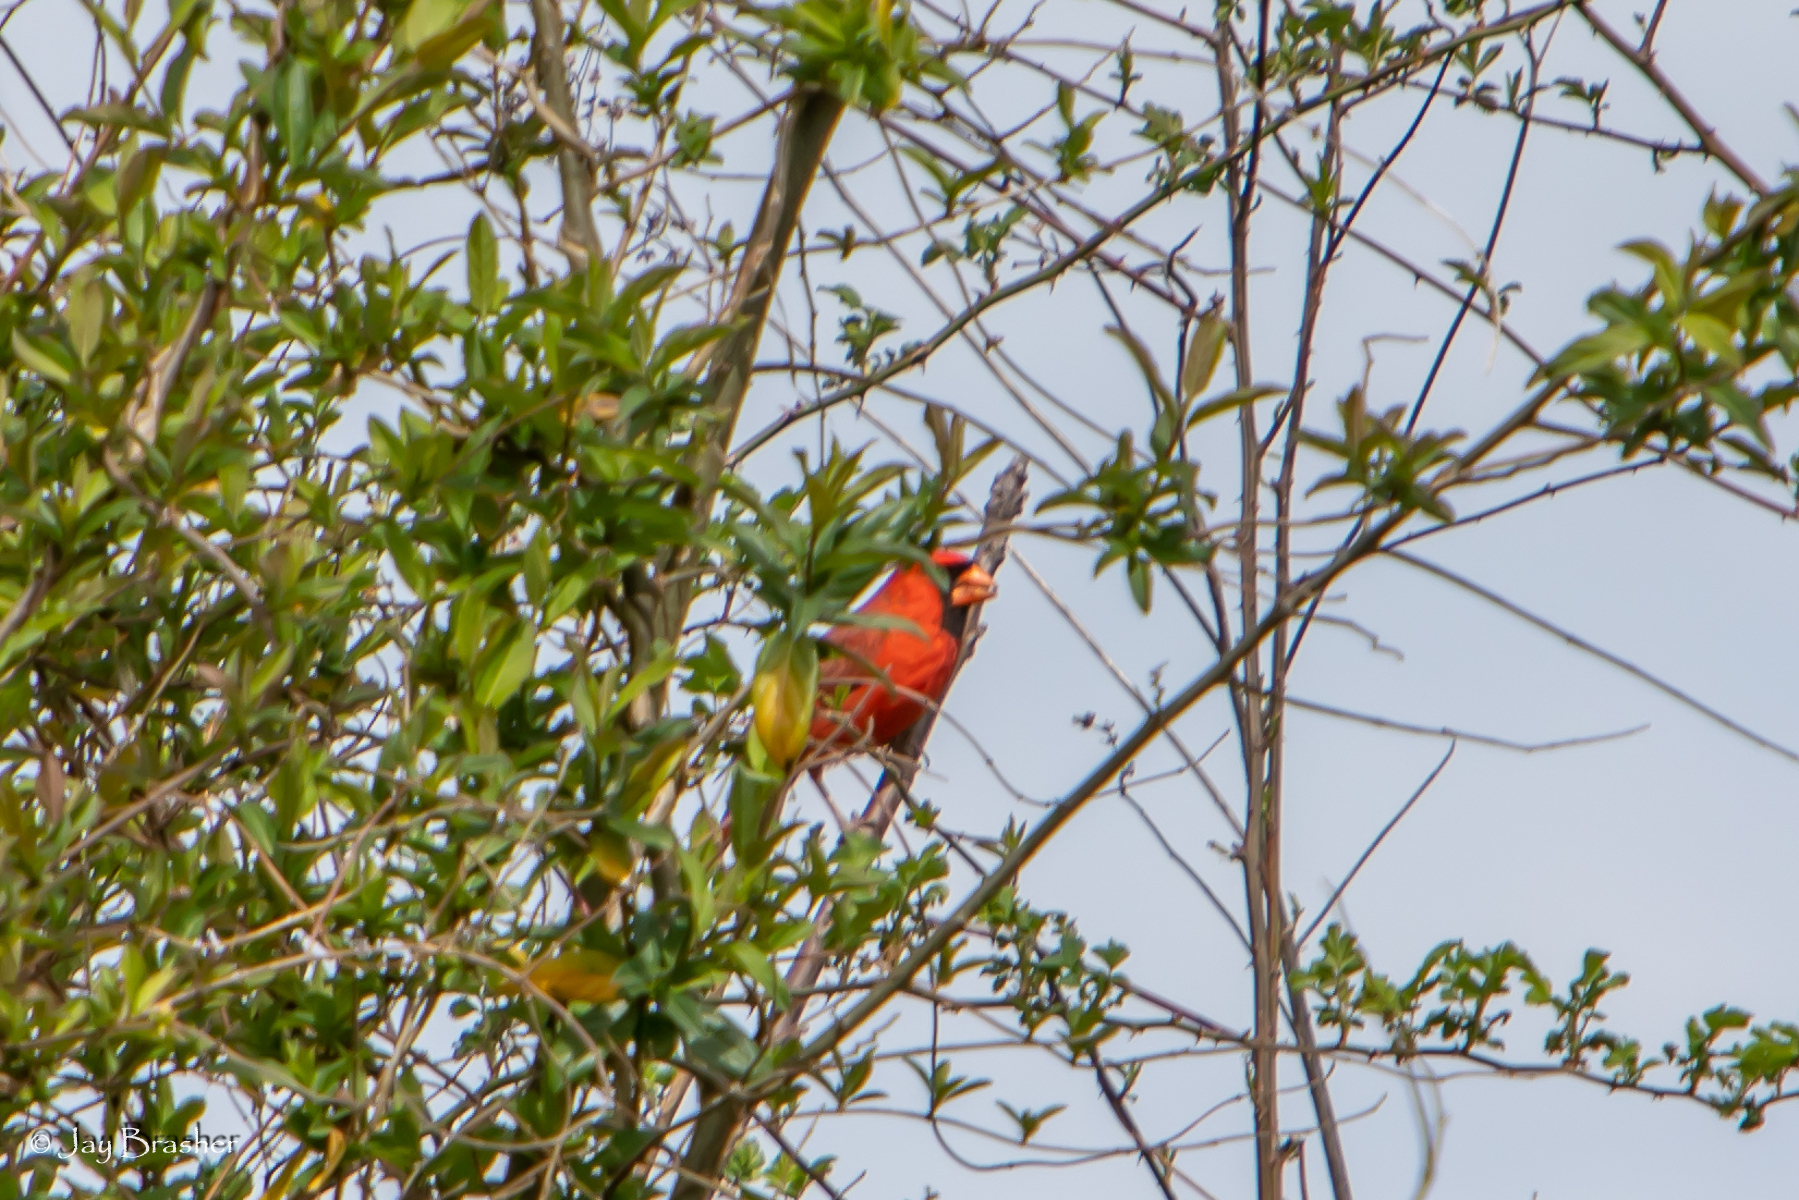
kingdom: Animalia
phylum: Chordata
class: Aves
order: Passeriformes
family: Cardinalidae
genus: Cardinalis
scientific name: Cardinalis cardinalis
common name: Northern cardinal
